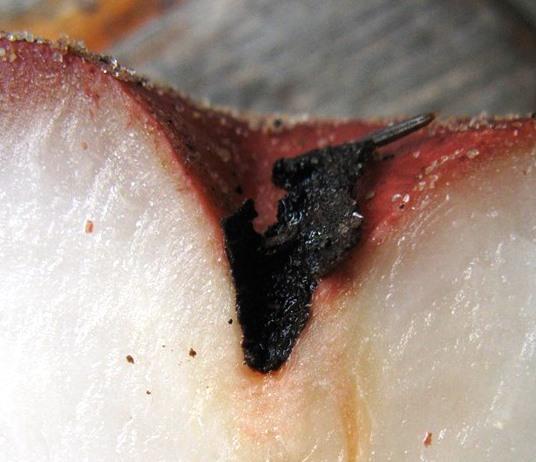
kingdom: Plantae
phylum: Tracheophyta
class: Magnoliopsida
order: Vitales
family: Vitaceae
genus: Rhoicissus
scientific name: Rhoicissus digitata
